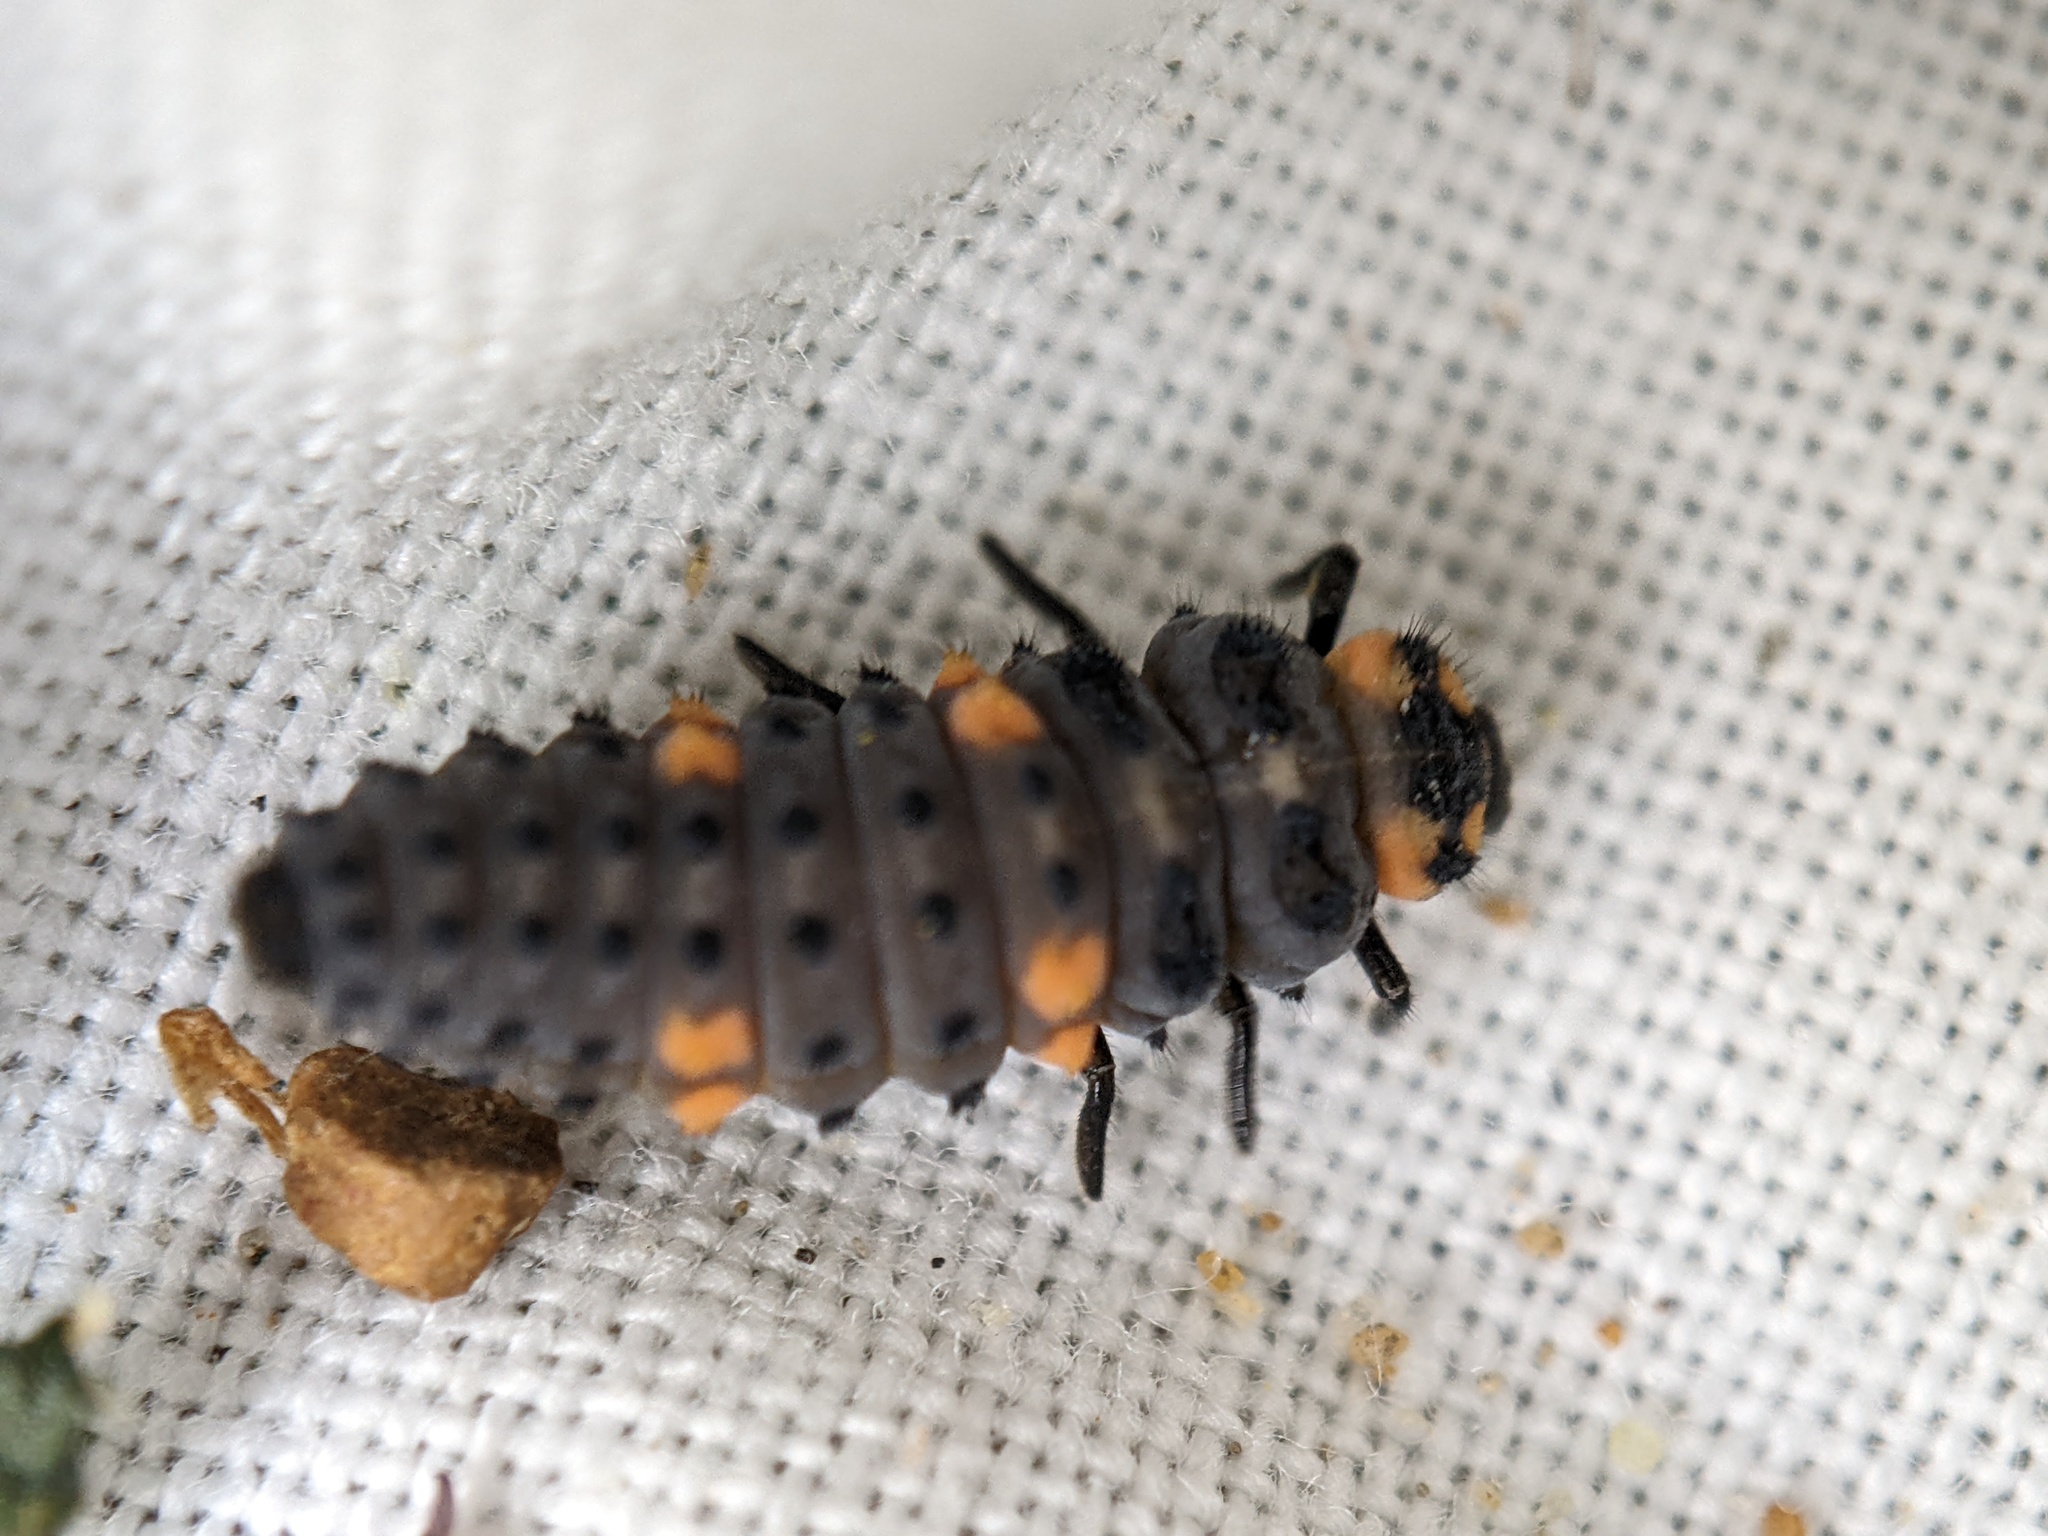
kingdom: Animalia
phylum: Arthropoda
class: Insecta
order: Coleoptera
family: Coccinellidae
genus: Coccinella
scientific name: Coccinella septempunctata
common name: Sevenspotted lady beetle
